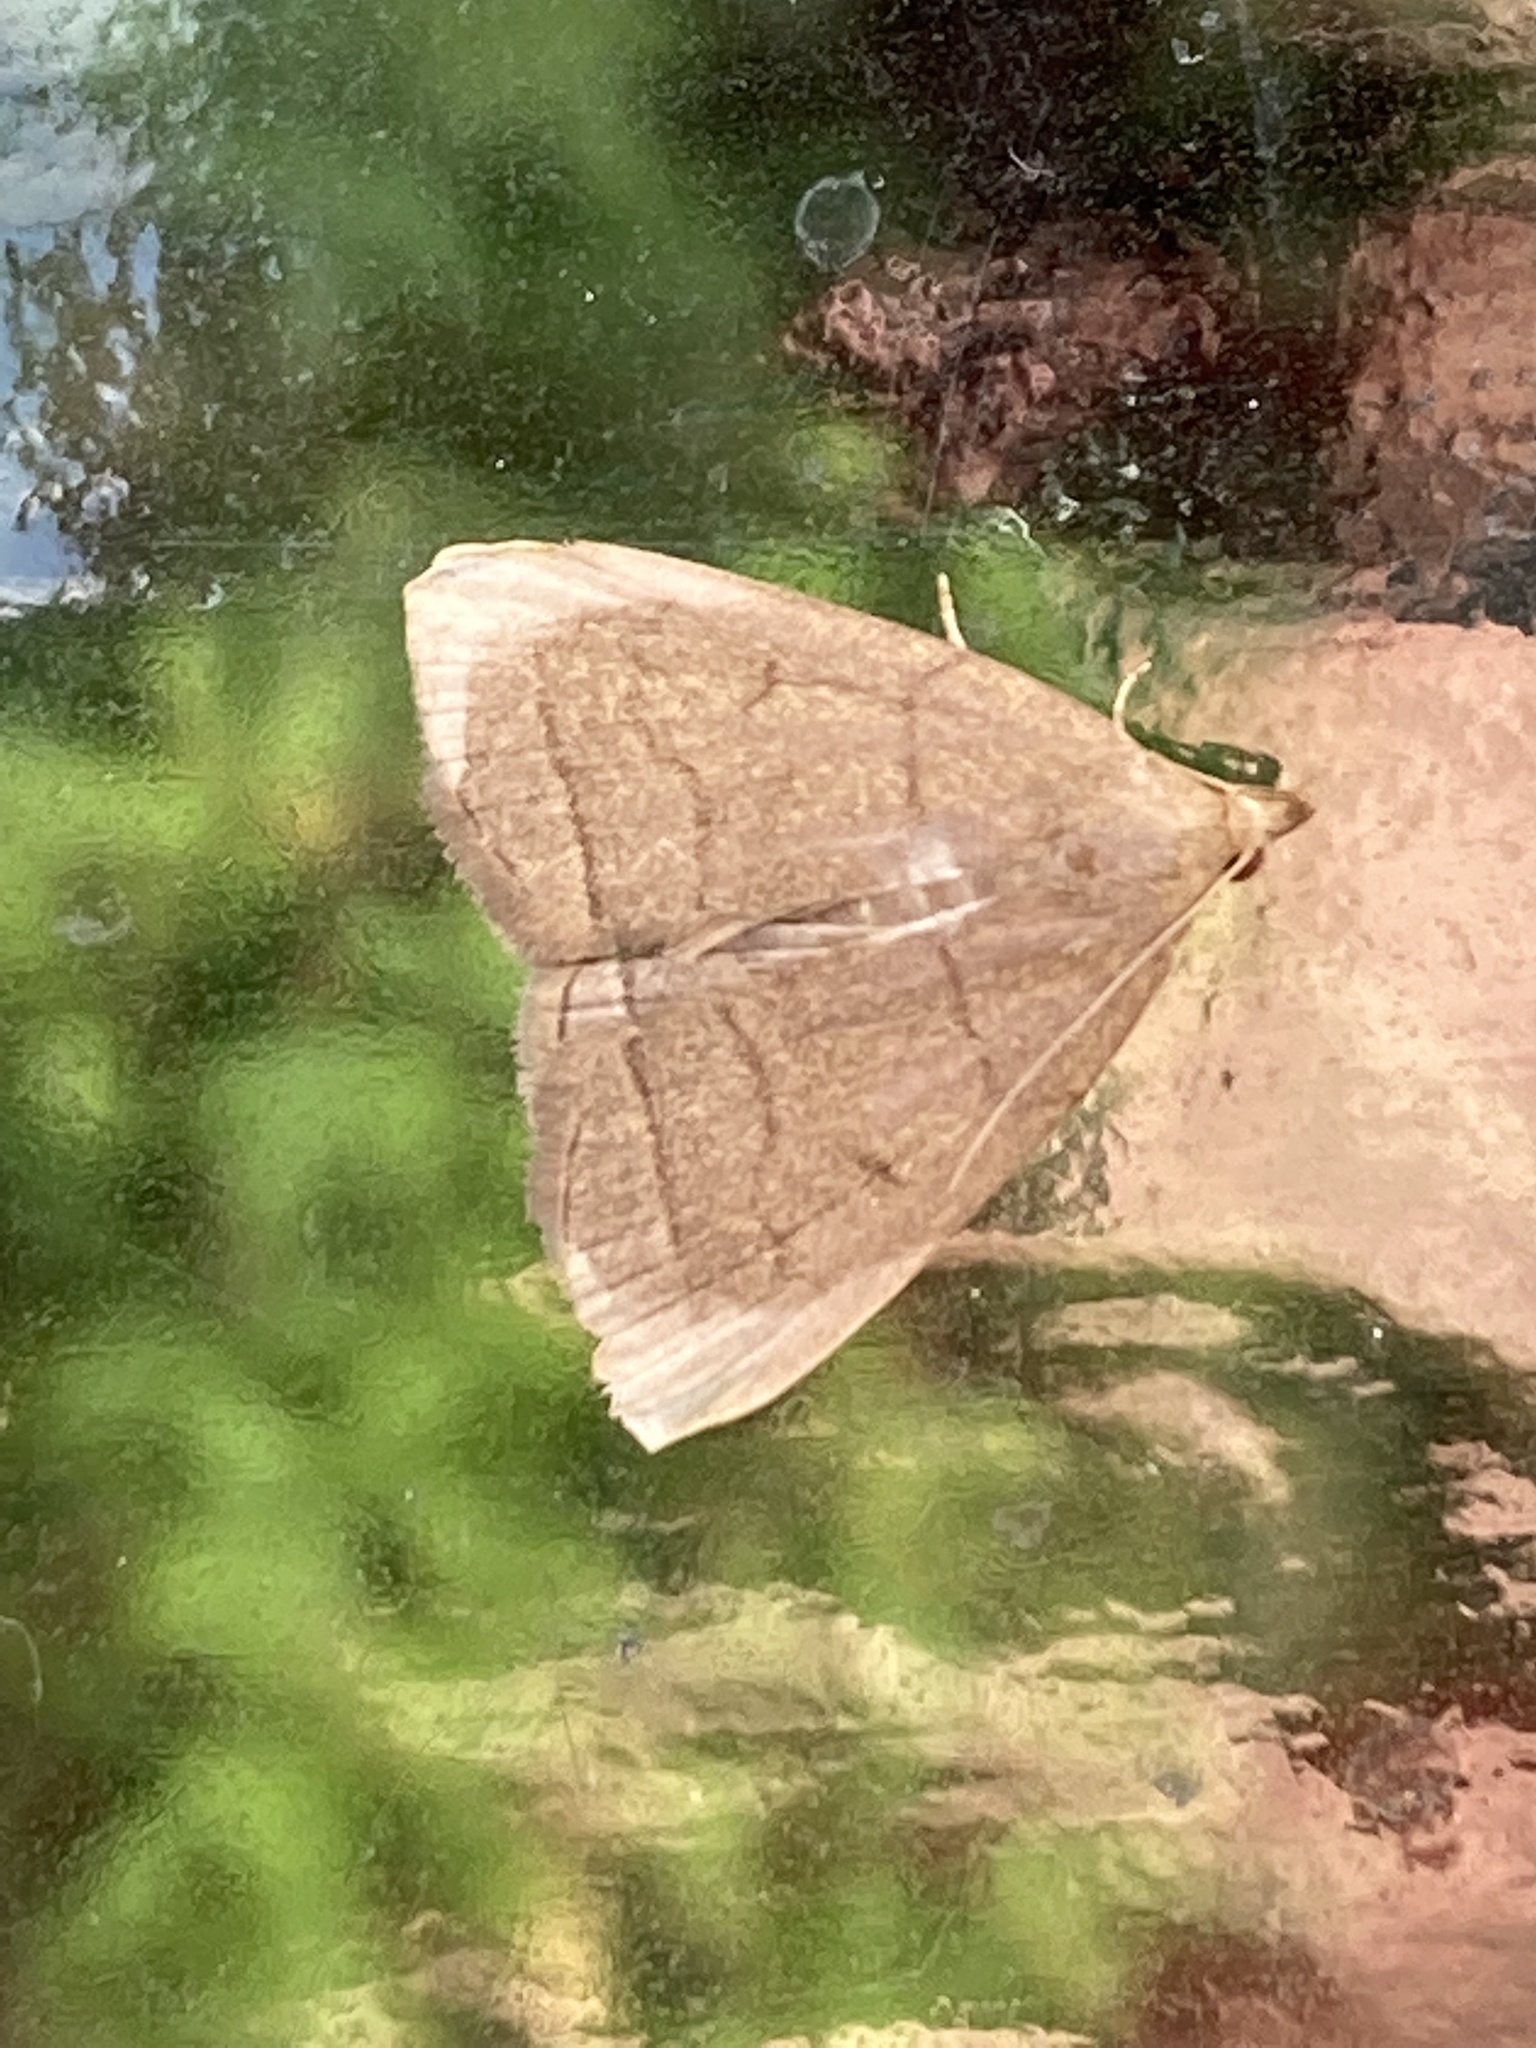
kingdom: Animalia
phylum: Arthropoda
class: Insecta
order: Lepidoptera
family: Erebidae
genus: Herminia
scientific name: Herminia tarsipennalis
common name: Fan-foot
